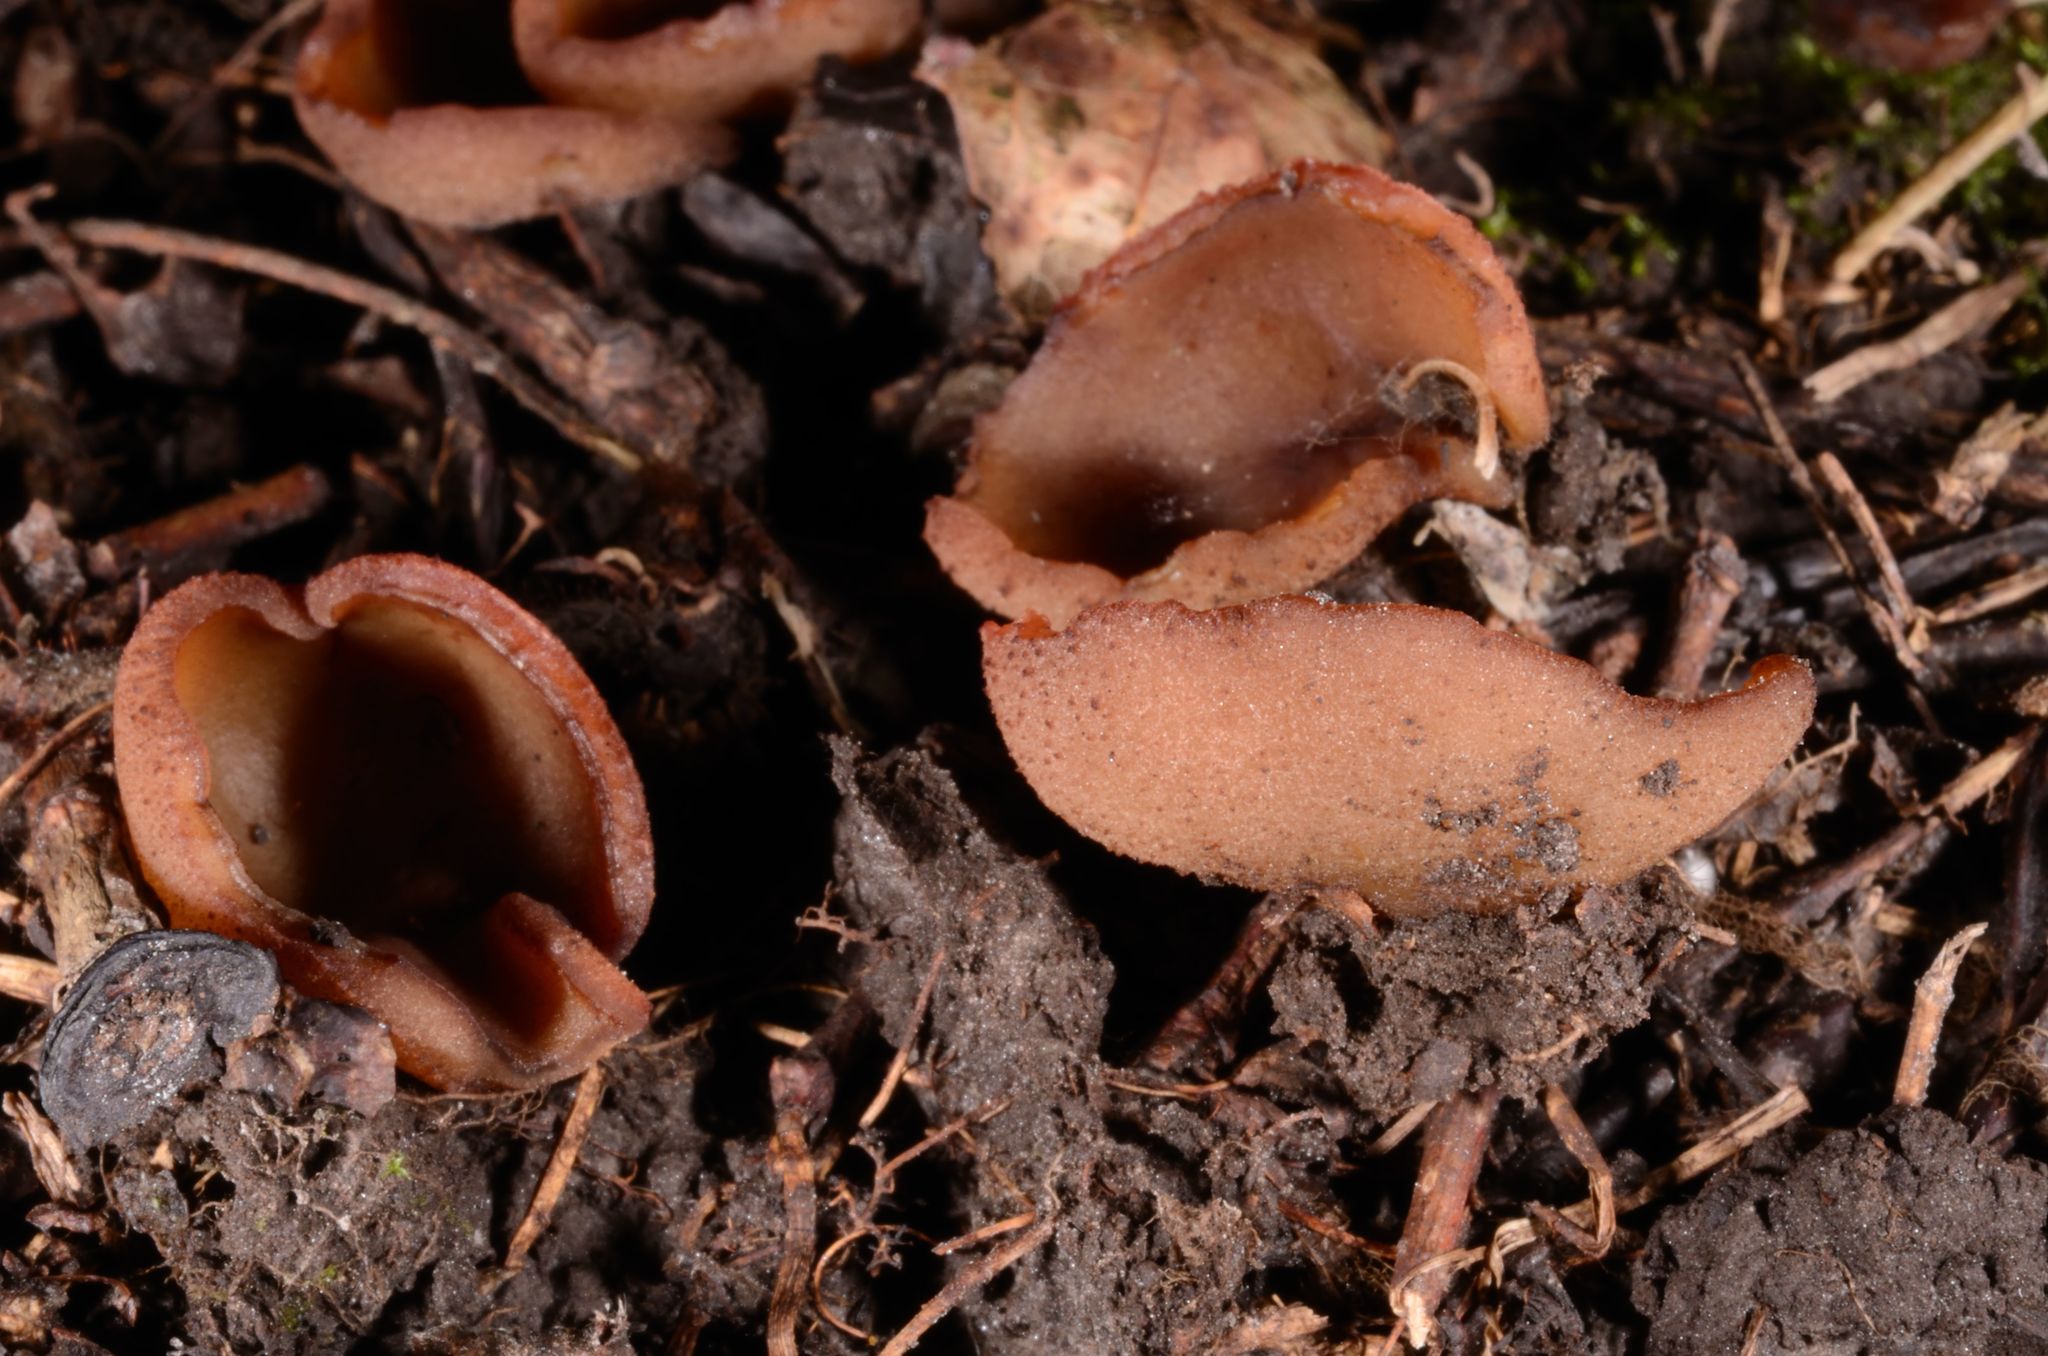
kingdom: Fungi
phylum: Ascomycota
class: Pezizomycetes
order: Pezizales
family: Pezizaceae
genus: Peziza
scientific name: Peziza depressa
